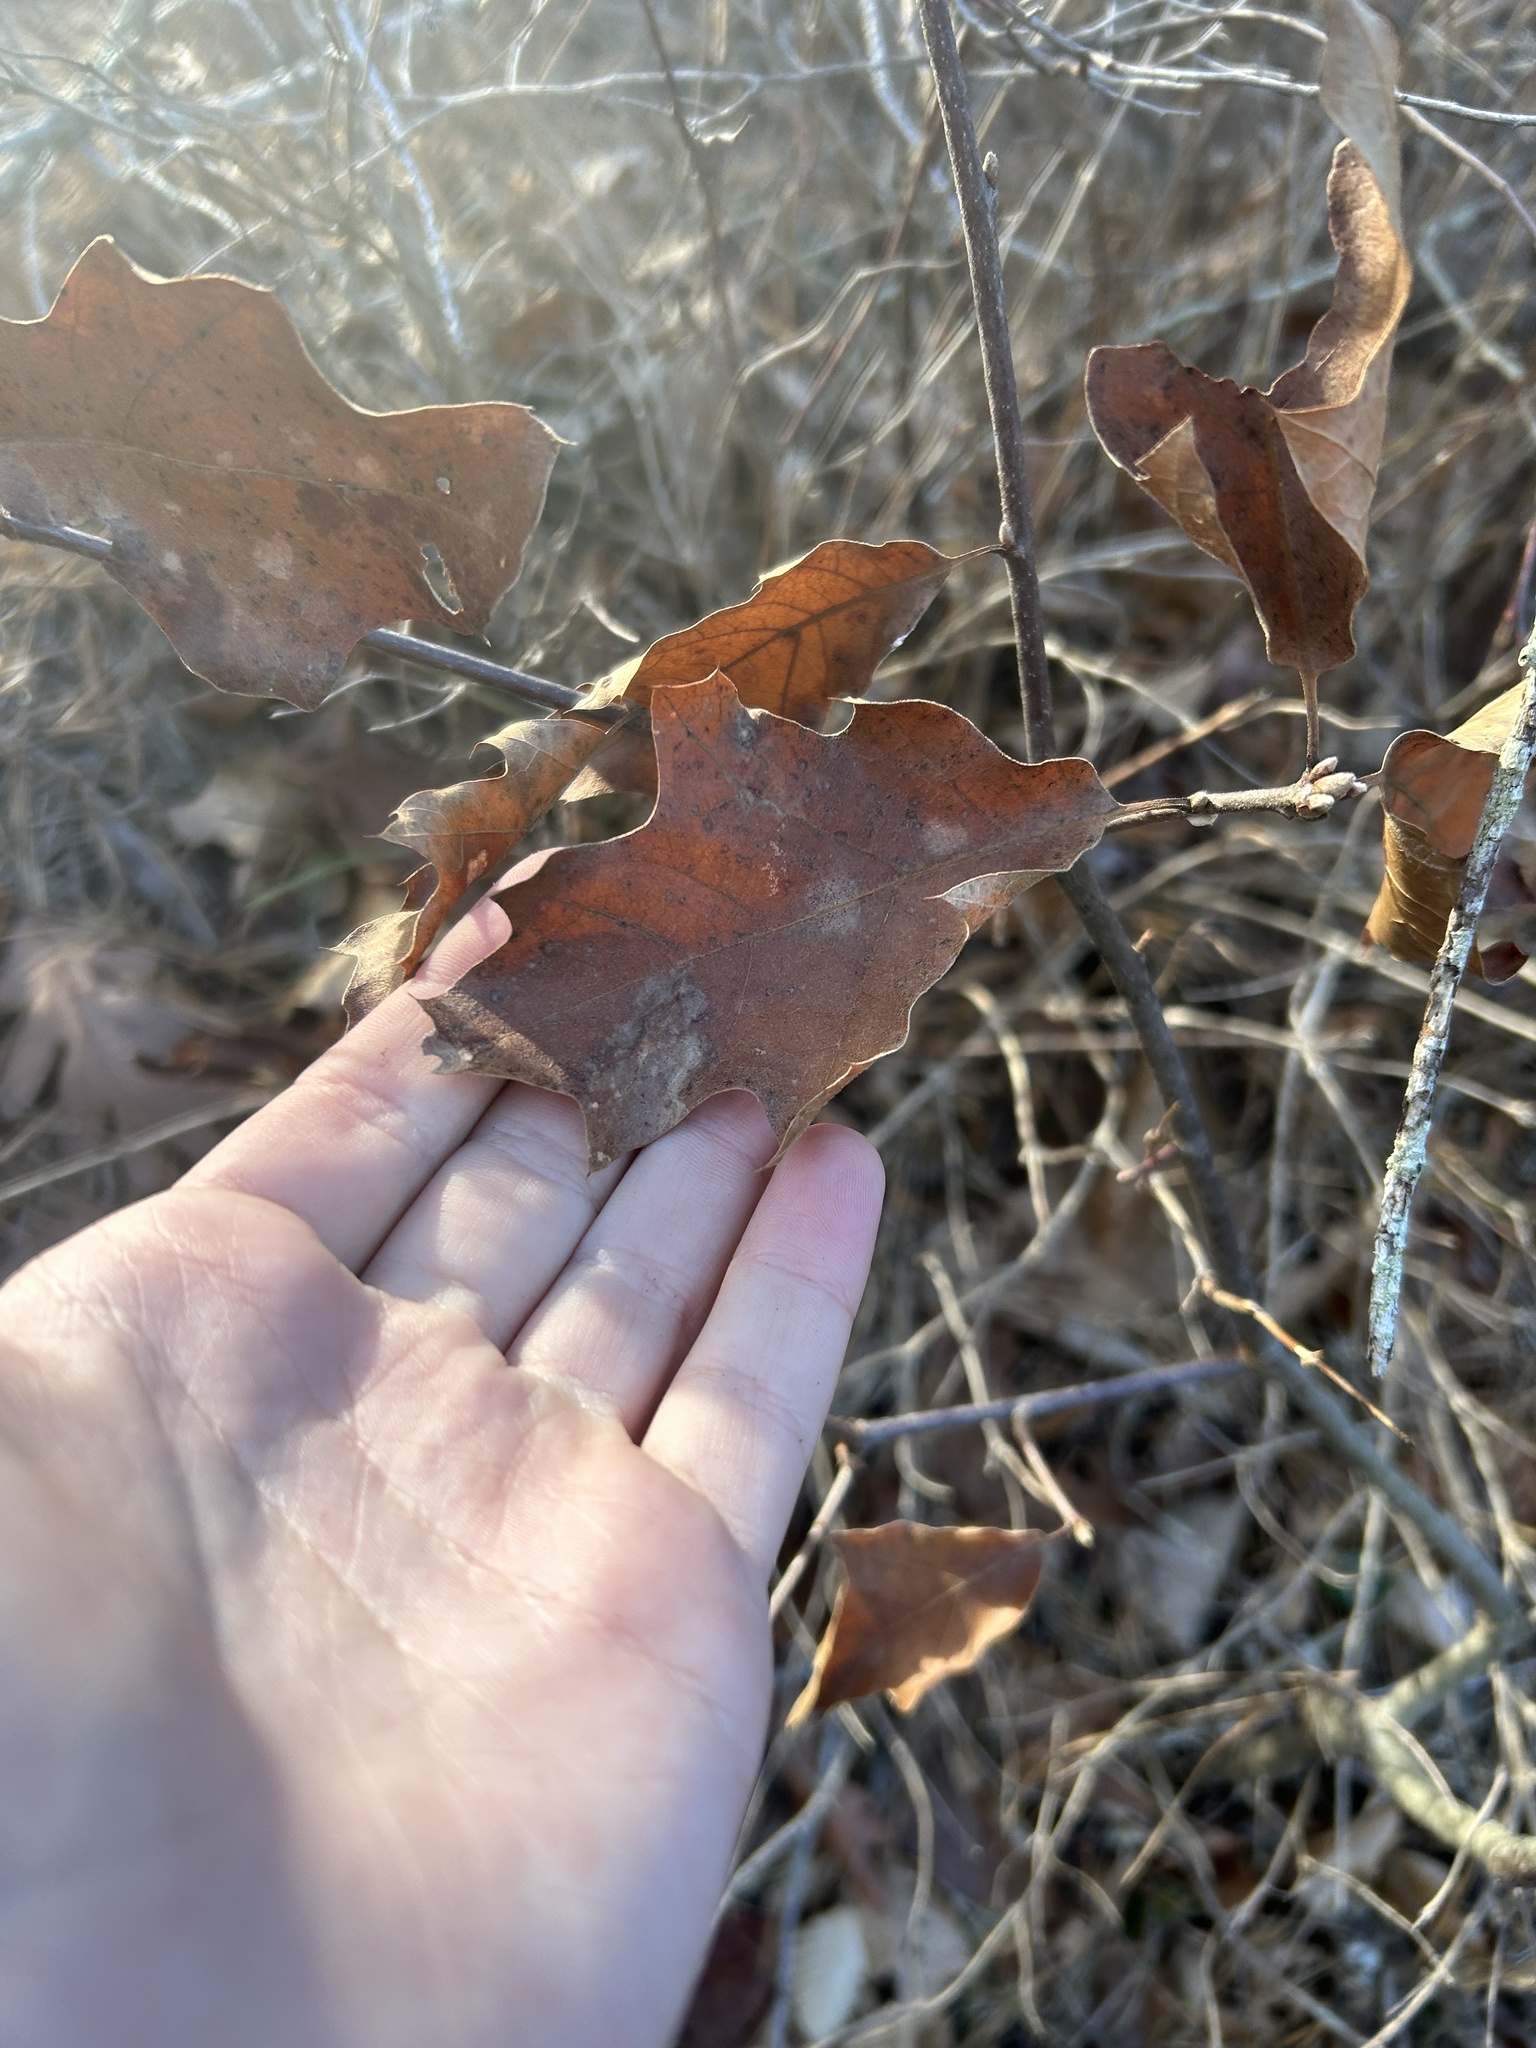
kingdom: Plantae
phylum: Tracheophyta
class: Magnoliopsida
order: Fagales
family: Fagaceae
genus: Quercus
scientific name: Quercus ilicifolia
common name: Bear oak
